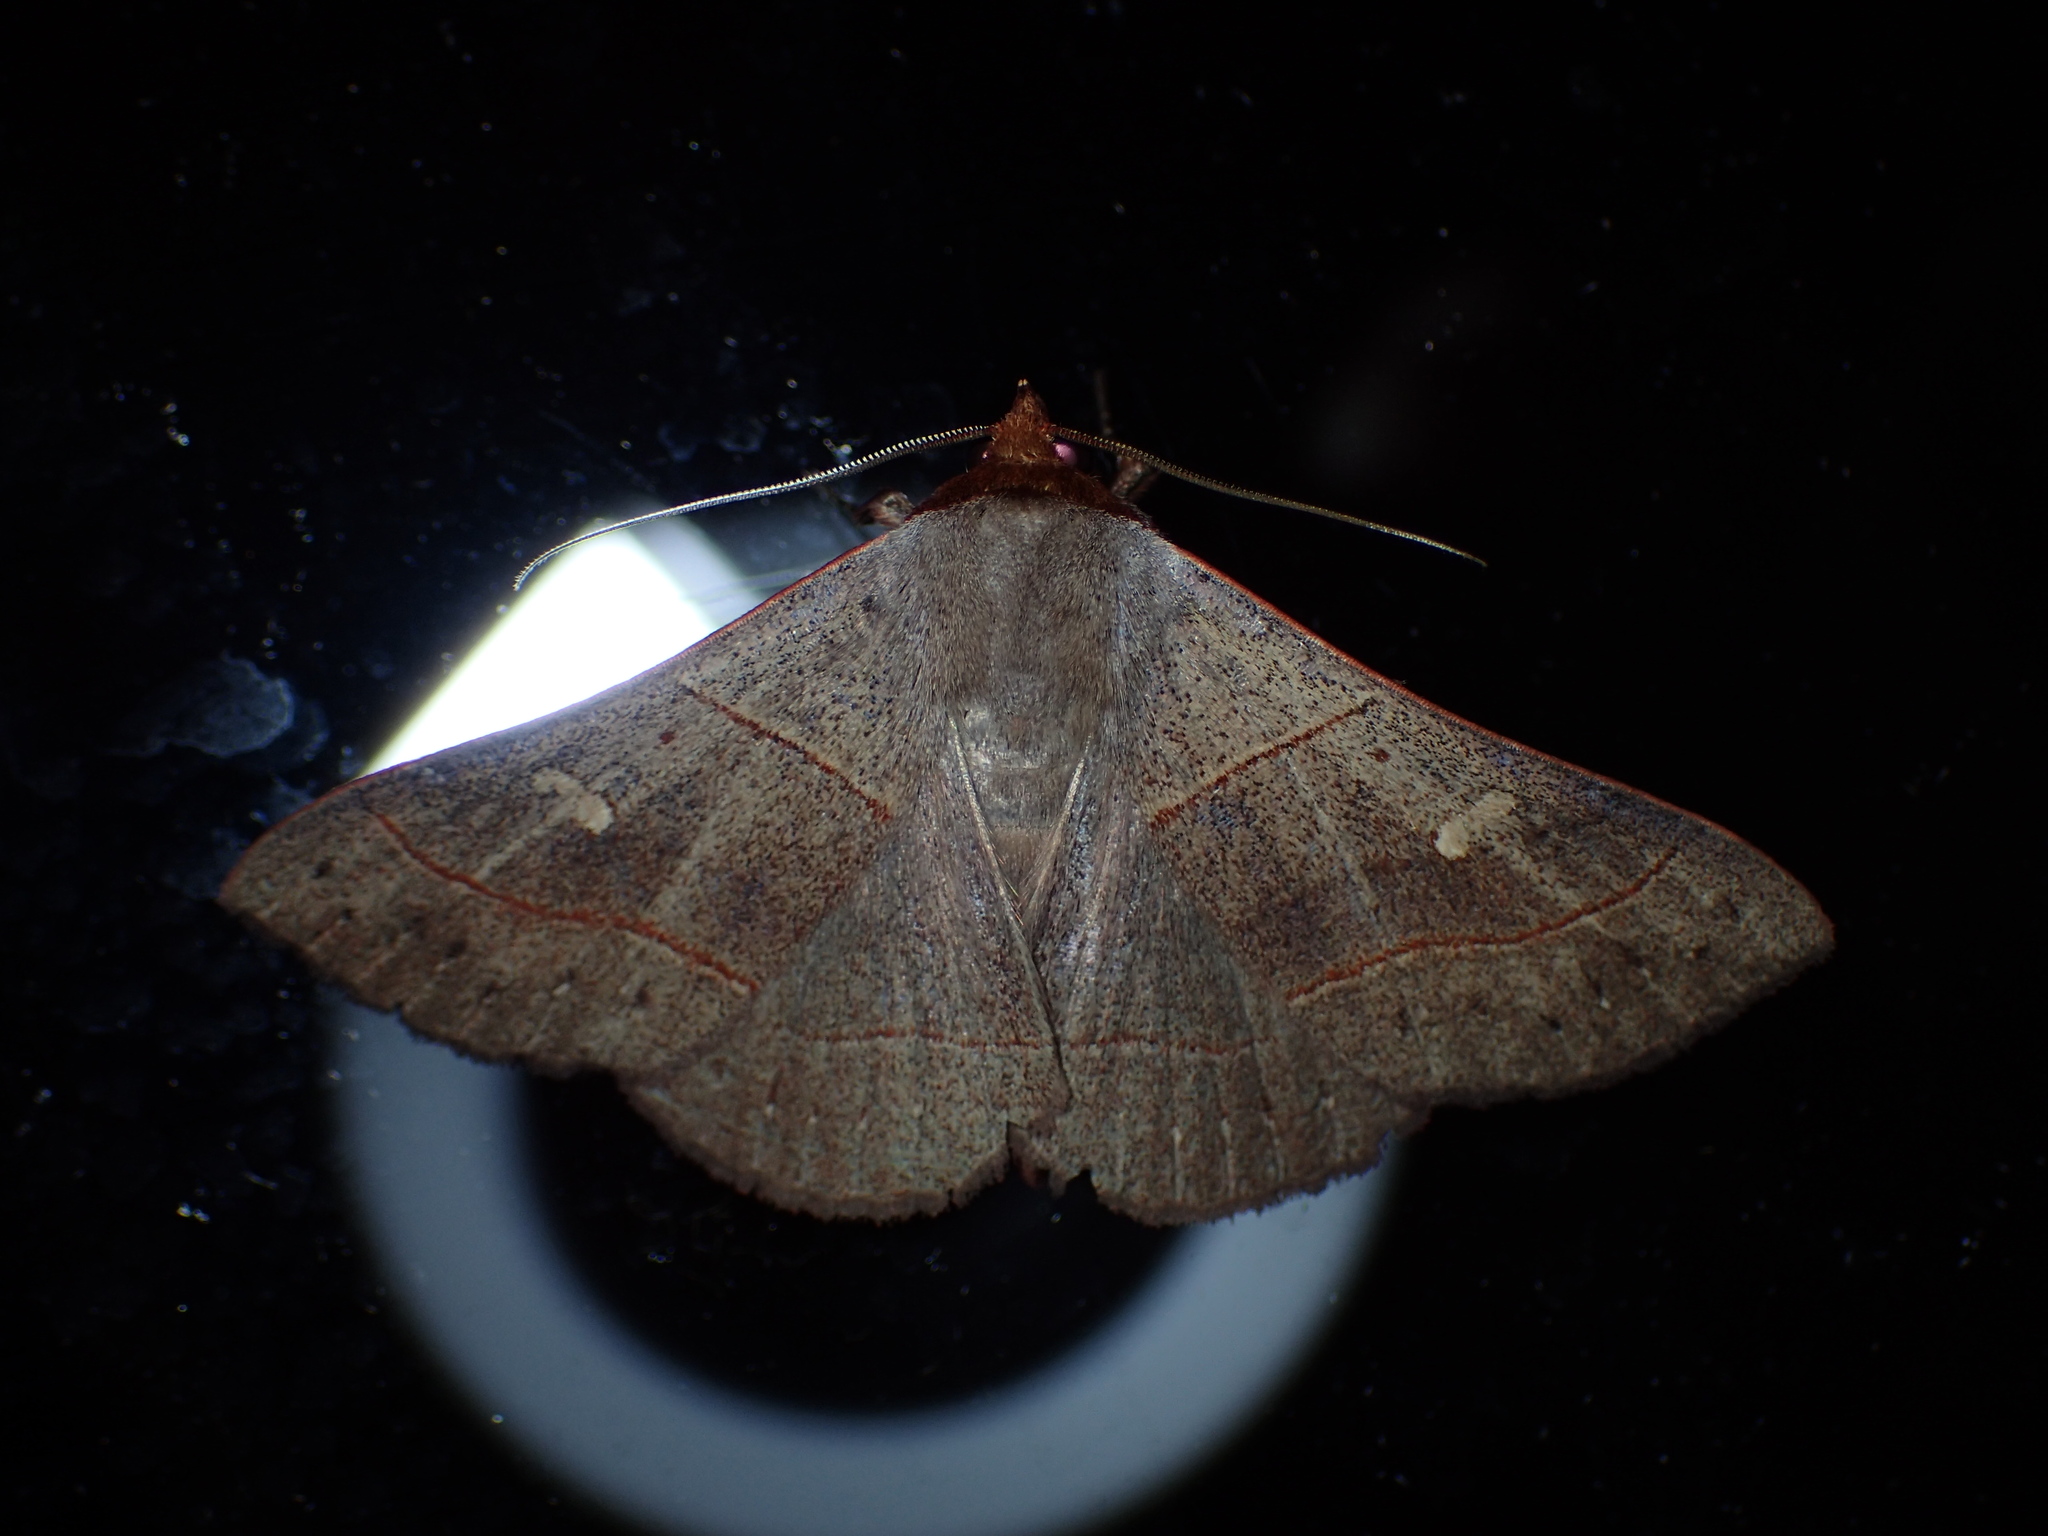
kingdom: Animalia
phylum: Arthropoda
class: Insecta
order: Lepidoptera
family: Erebidae
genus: Panopoda
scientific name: Panopoda rufimargo
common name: Red-lined panopoda moth
